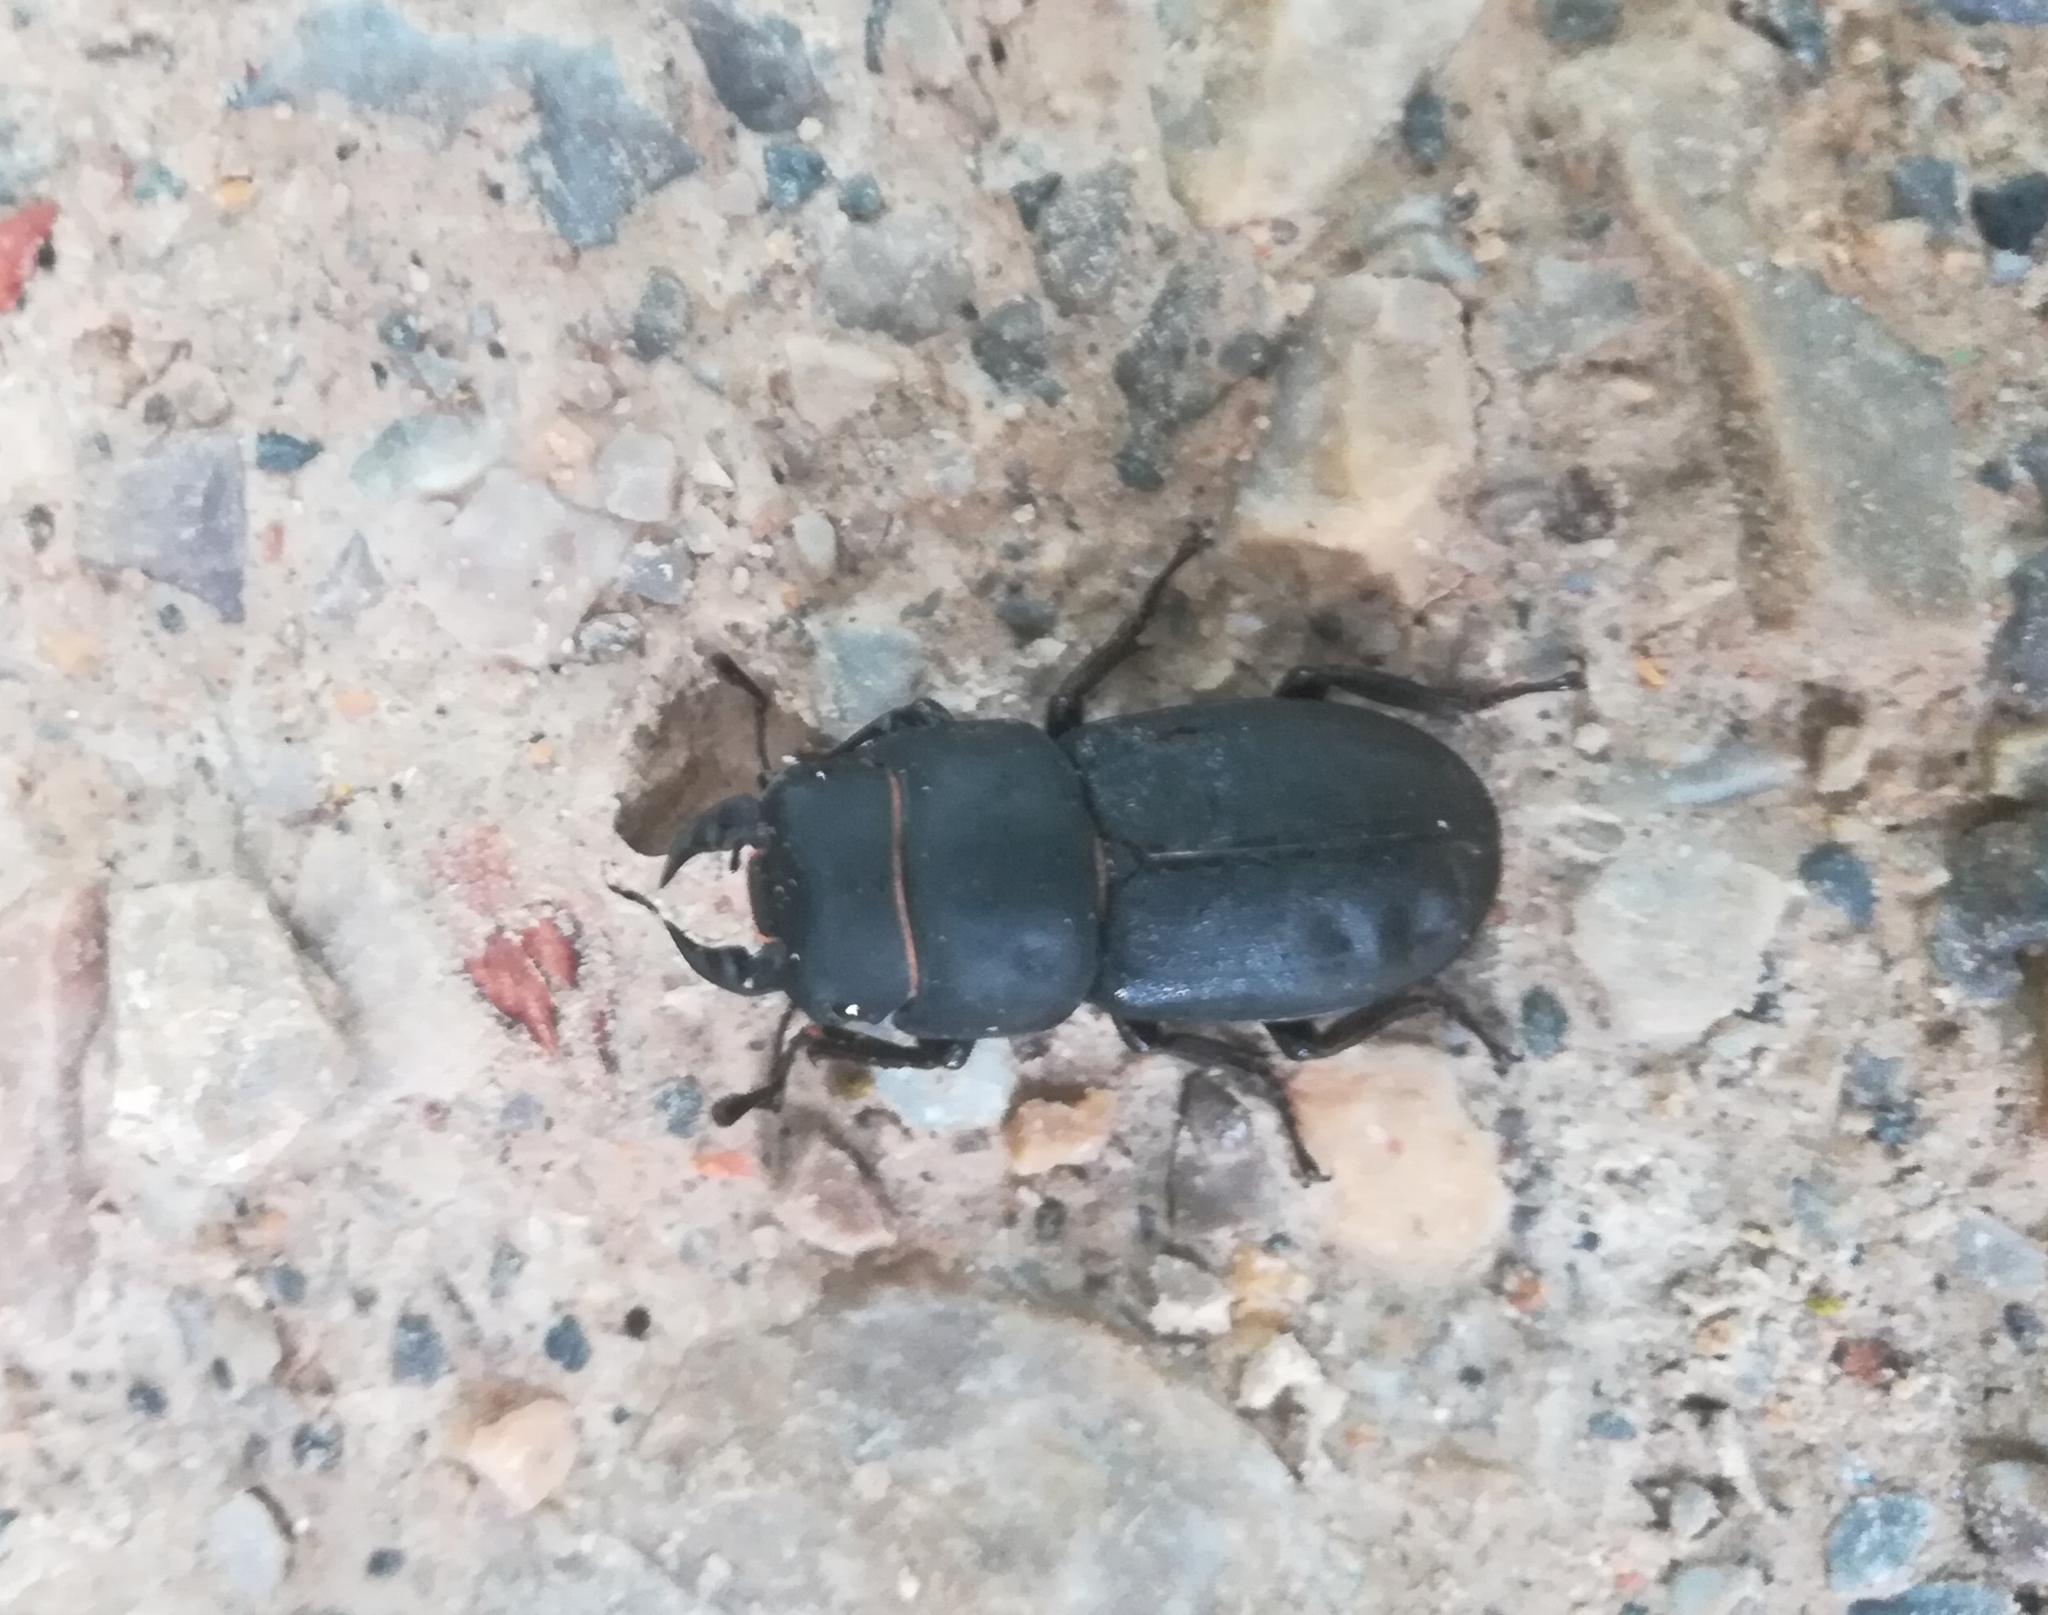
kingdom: Animalia
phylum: Arthropoda
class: Insecta
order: Coleoptera
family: Lucanidae
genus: Dorcus
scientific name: Dorcus parallelipipedus
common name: Lesser stag beetle
